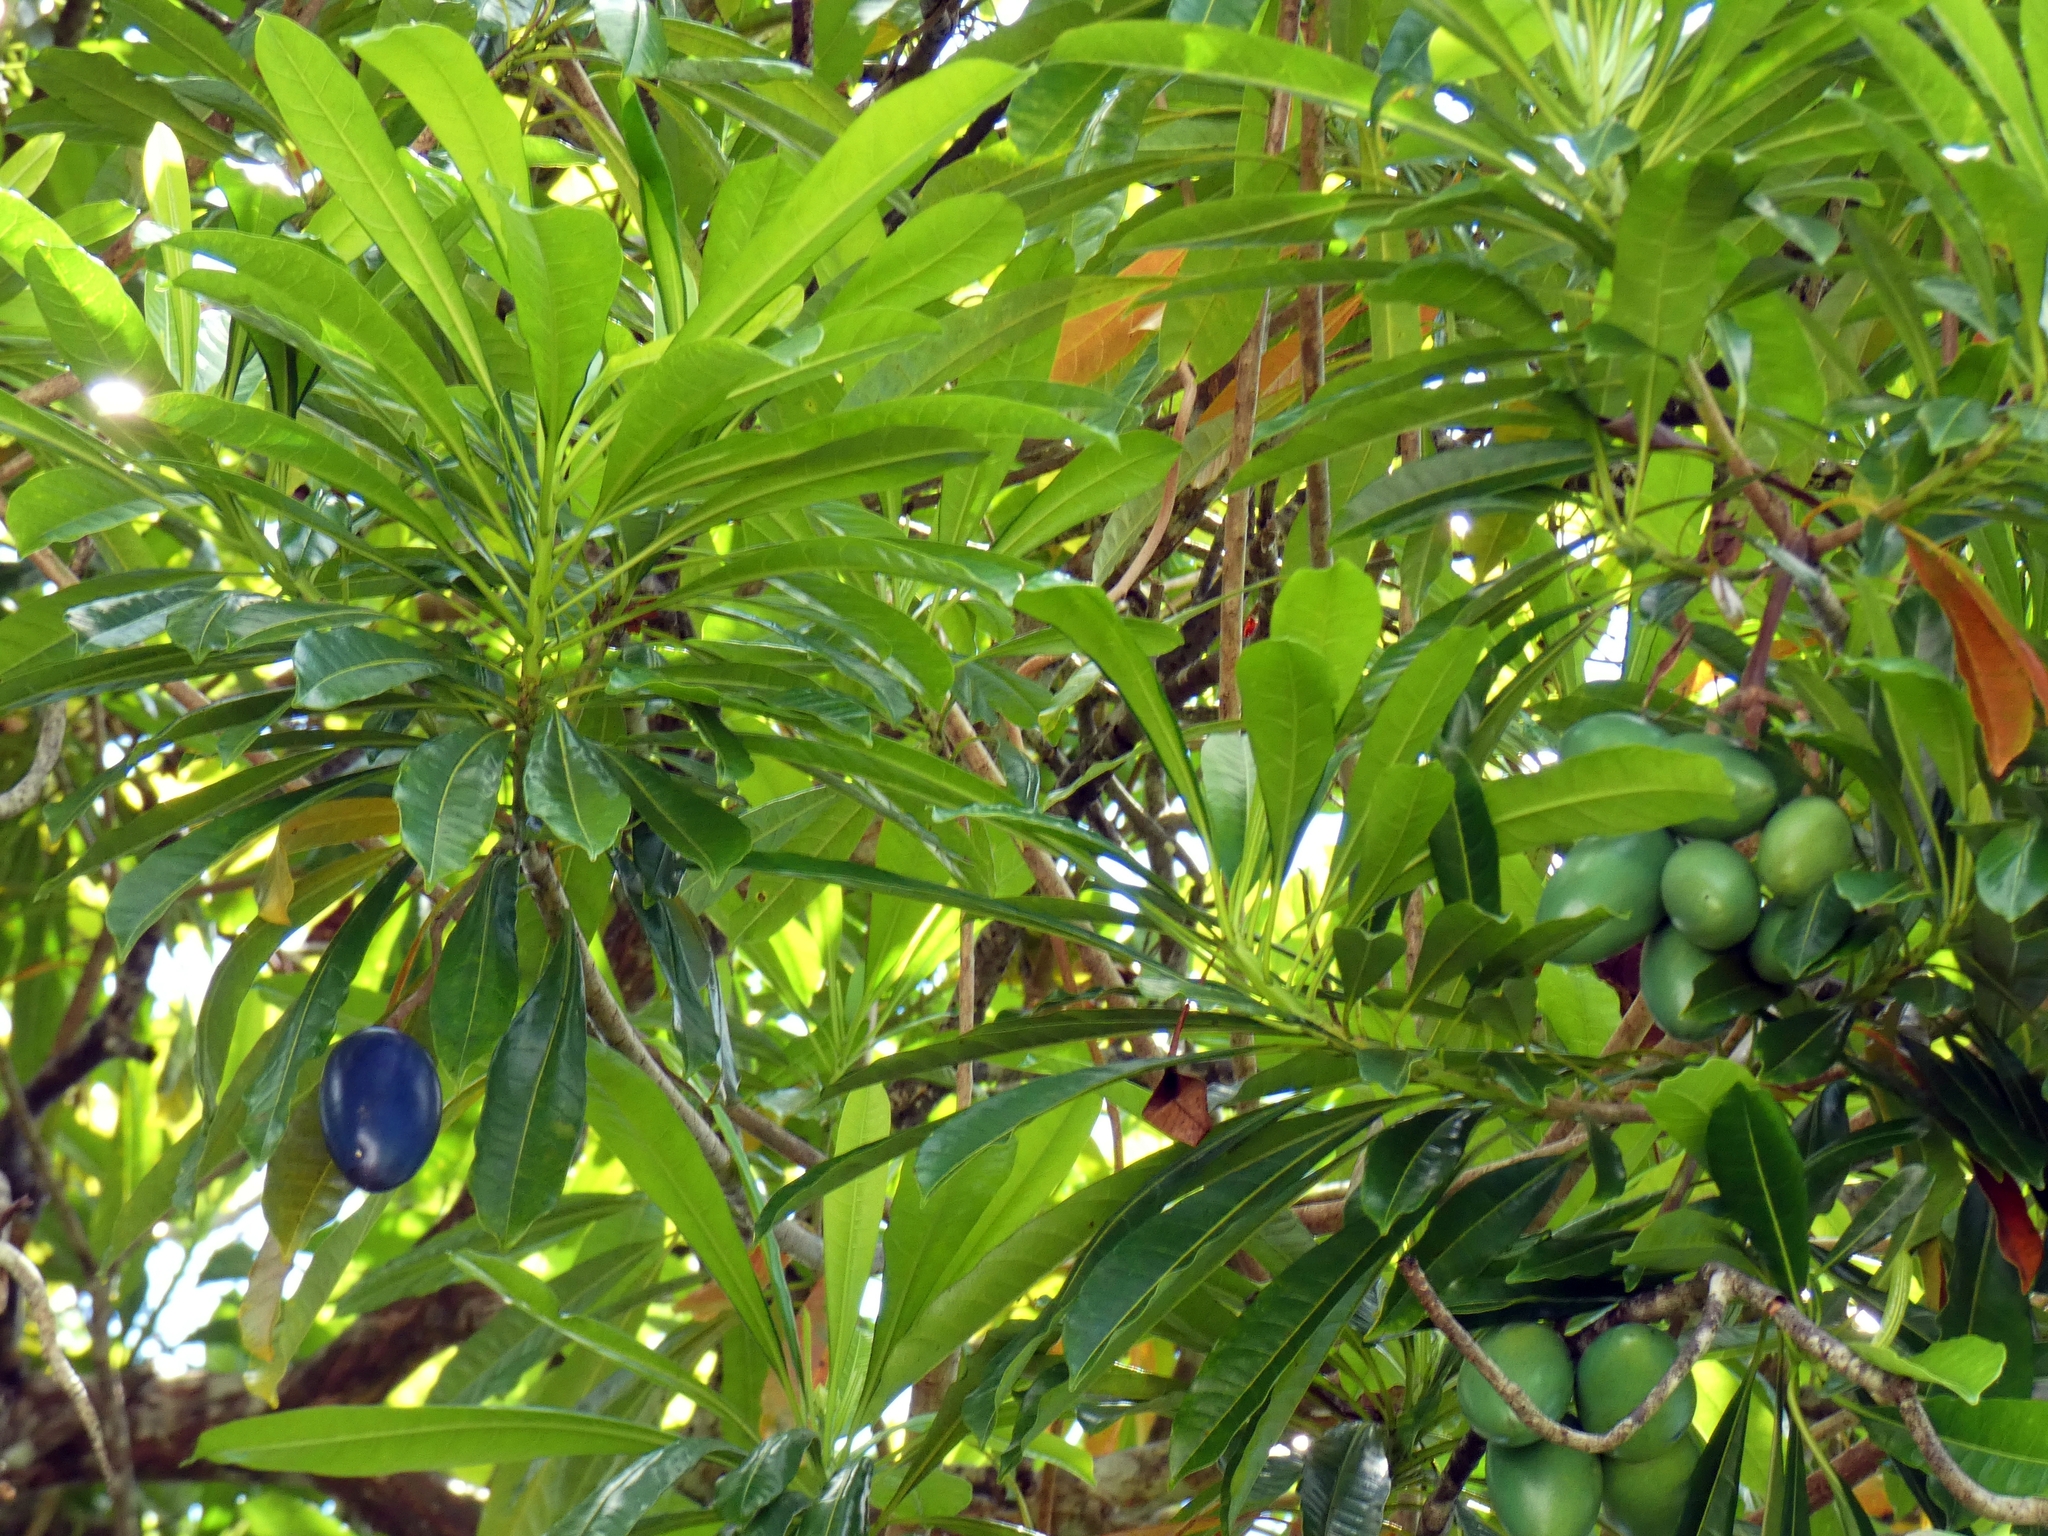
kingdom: Plantae
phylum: Tracheophyta
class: Magnoliopsida
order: Gentianales
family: Apocynaceae
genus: Cerbera
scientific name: Cerbera floribunda
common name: Cassowary plumtree
